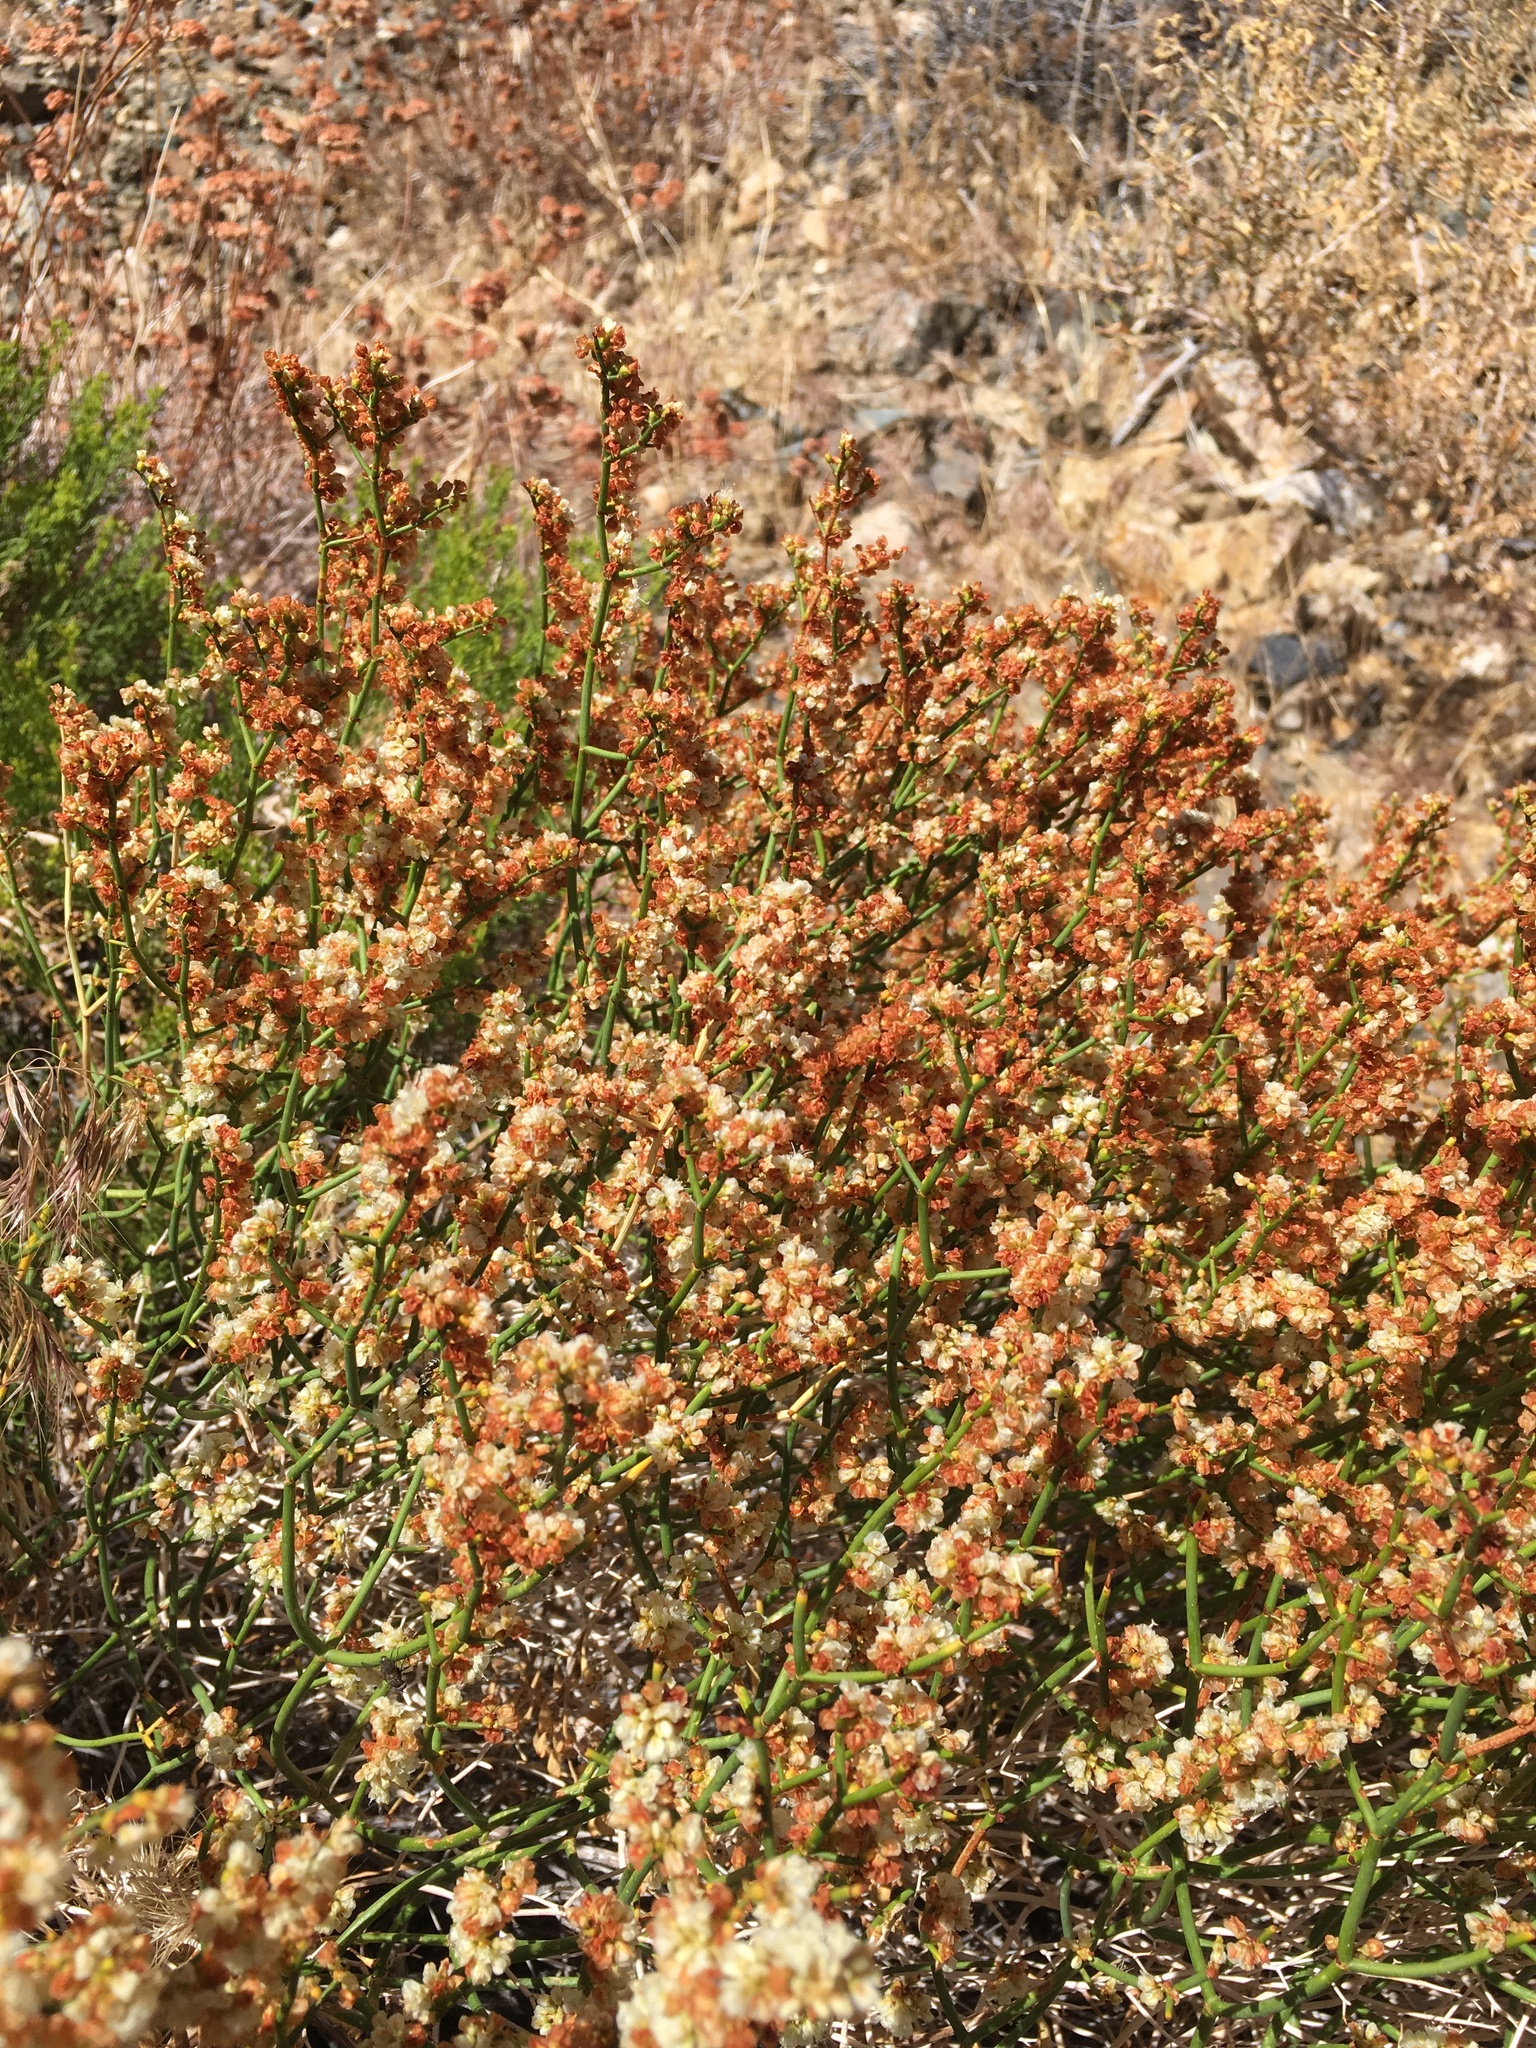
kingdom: Plantae
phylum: Tracheophyta
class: Magnoliopsida
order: Caryophyllales
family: Polygonaceae
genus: Eriogonum
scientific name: Eriogonum heermannii
